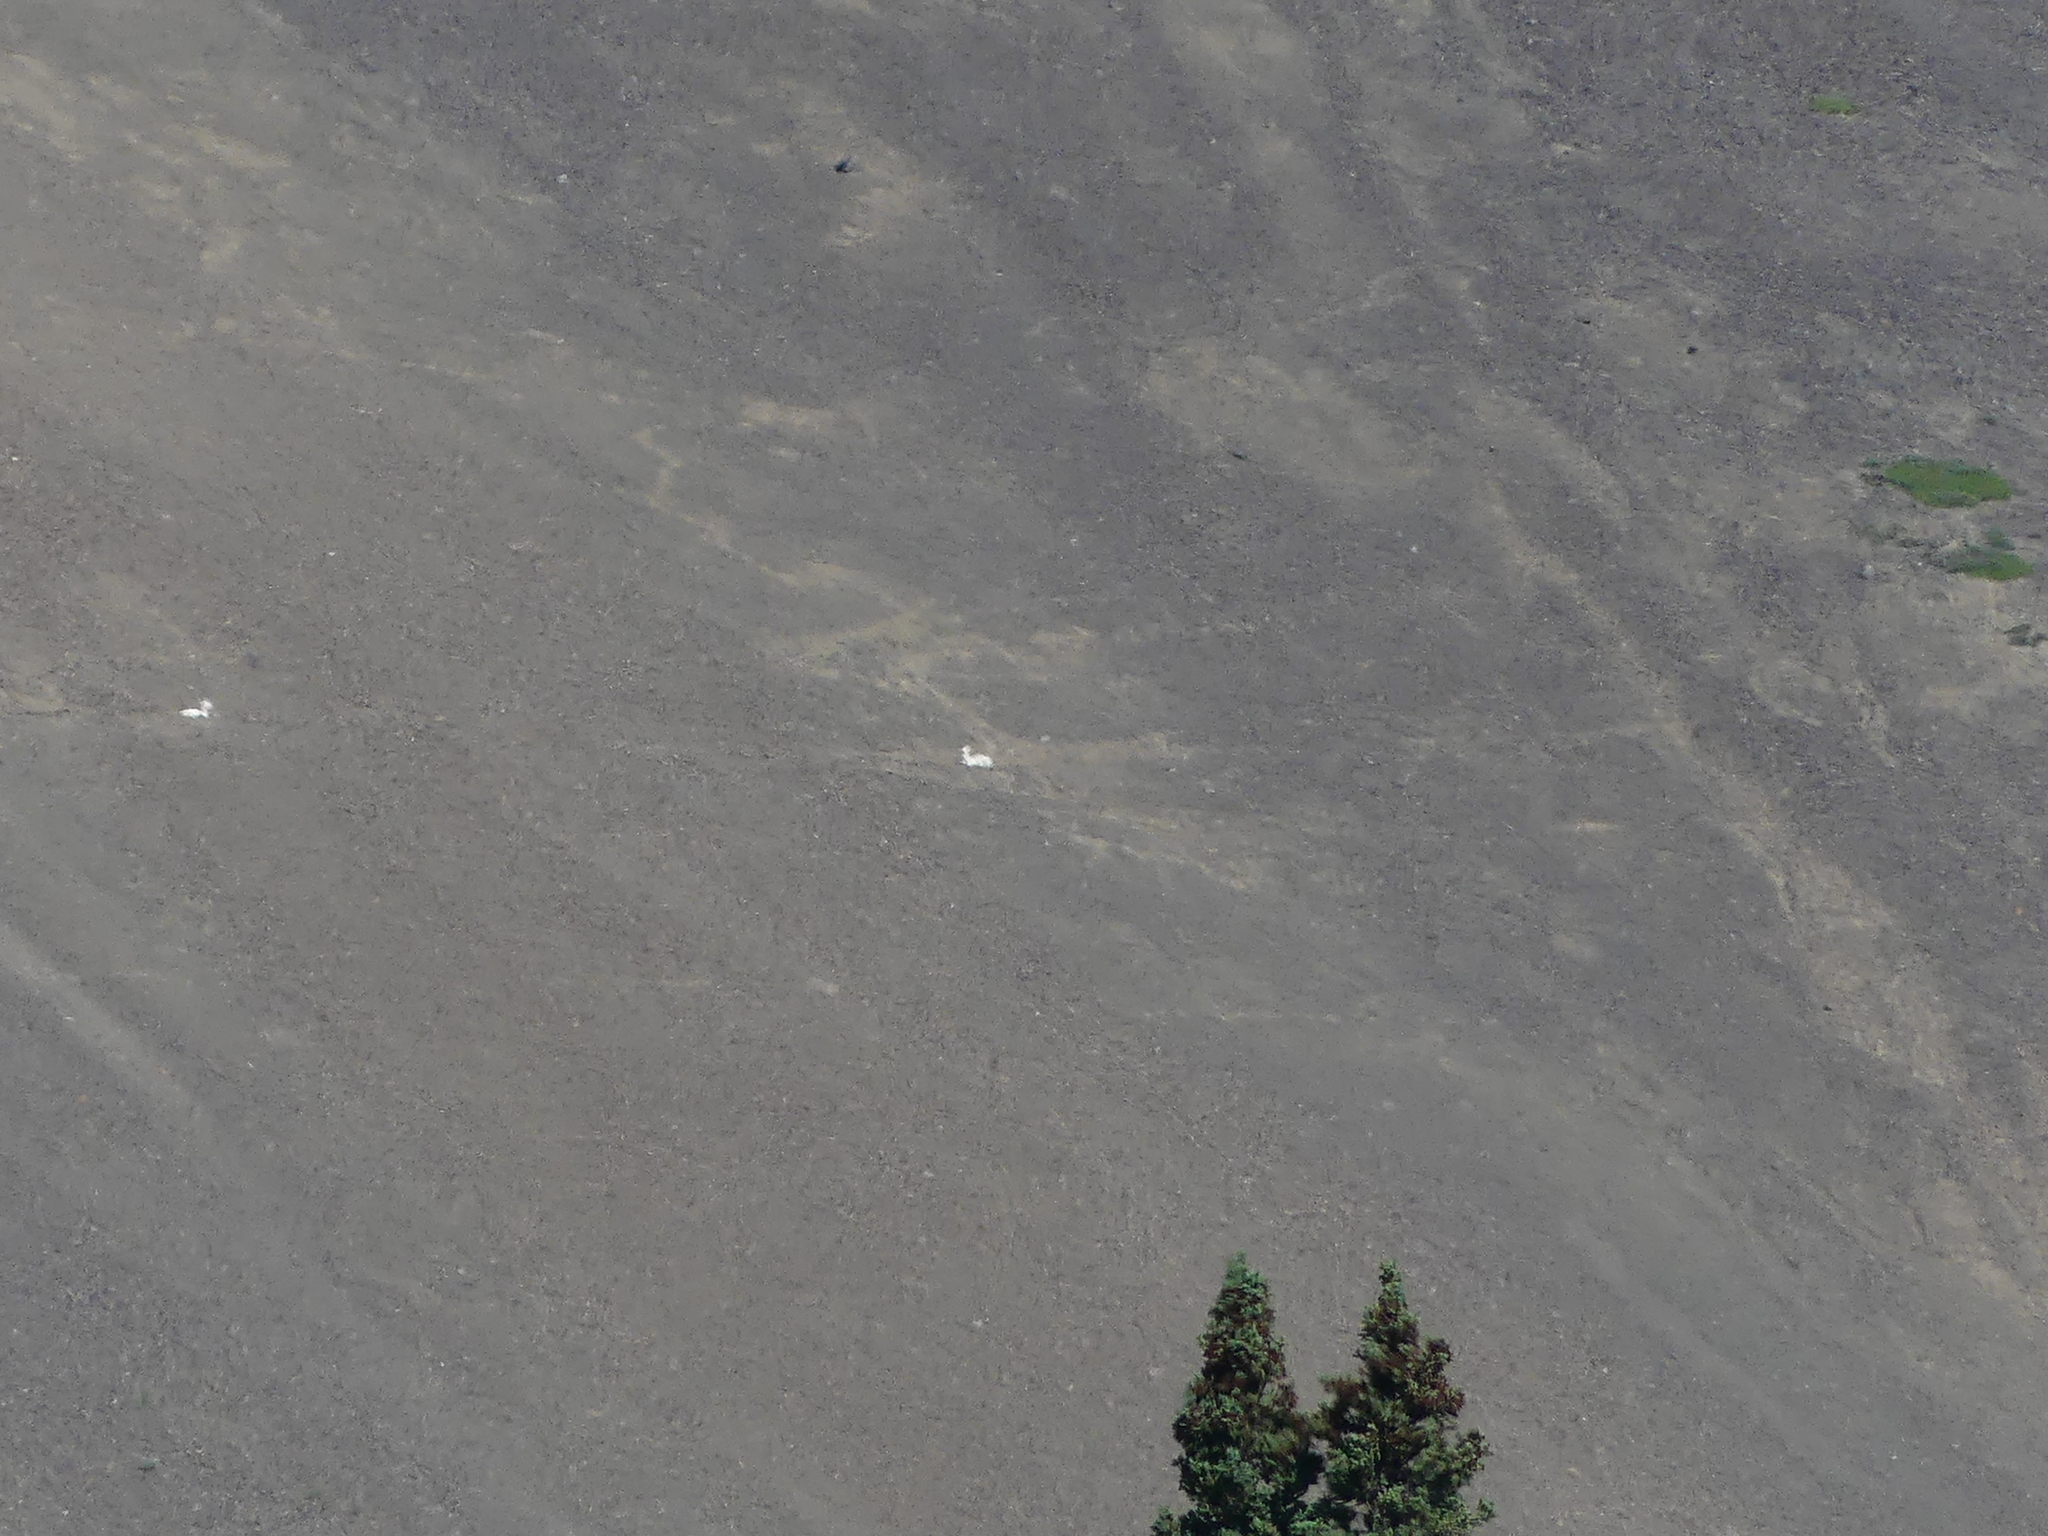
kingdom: Animalia
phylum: Chordata
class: Mammalia
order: Artiodactyla
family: Bovidae
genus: Ovis
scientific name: Ovis dalli
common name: Dall's sheep
